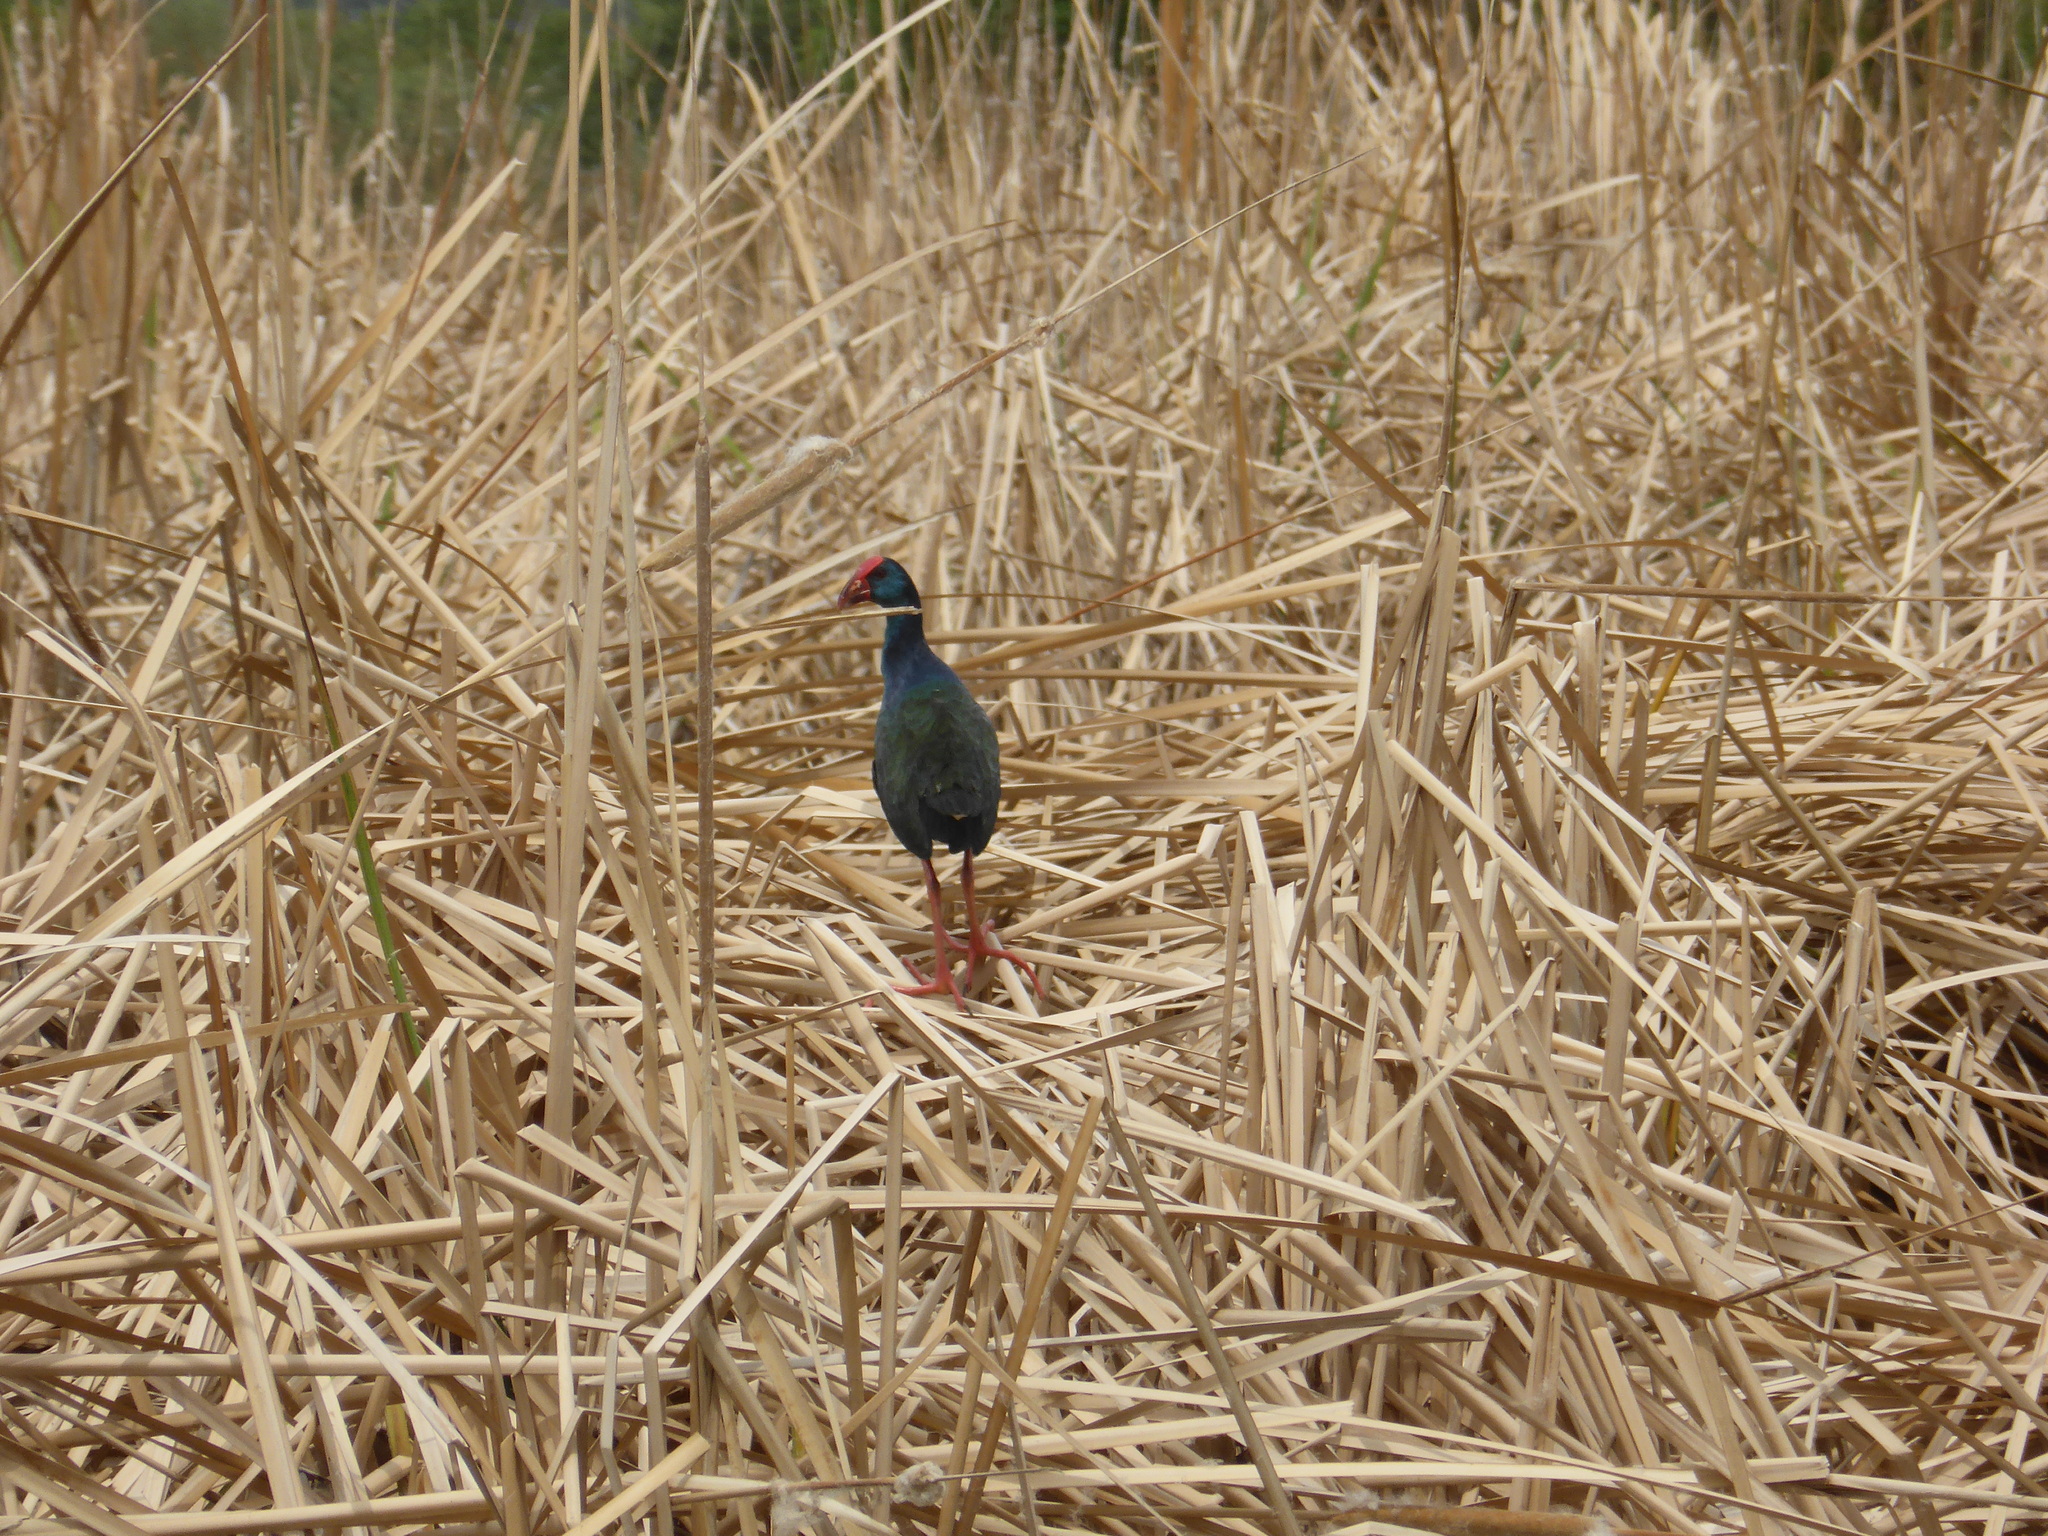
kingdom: Animalia
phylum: Chordata
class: Aves
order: Gruiformes
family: Rallidae
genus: Porphyrio
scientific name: Porphyrio porphyrio
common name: Purple swamphen
